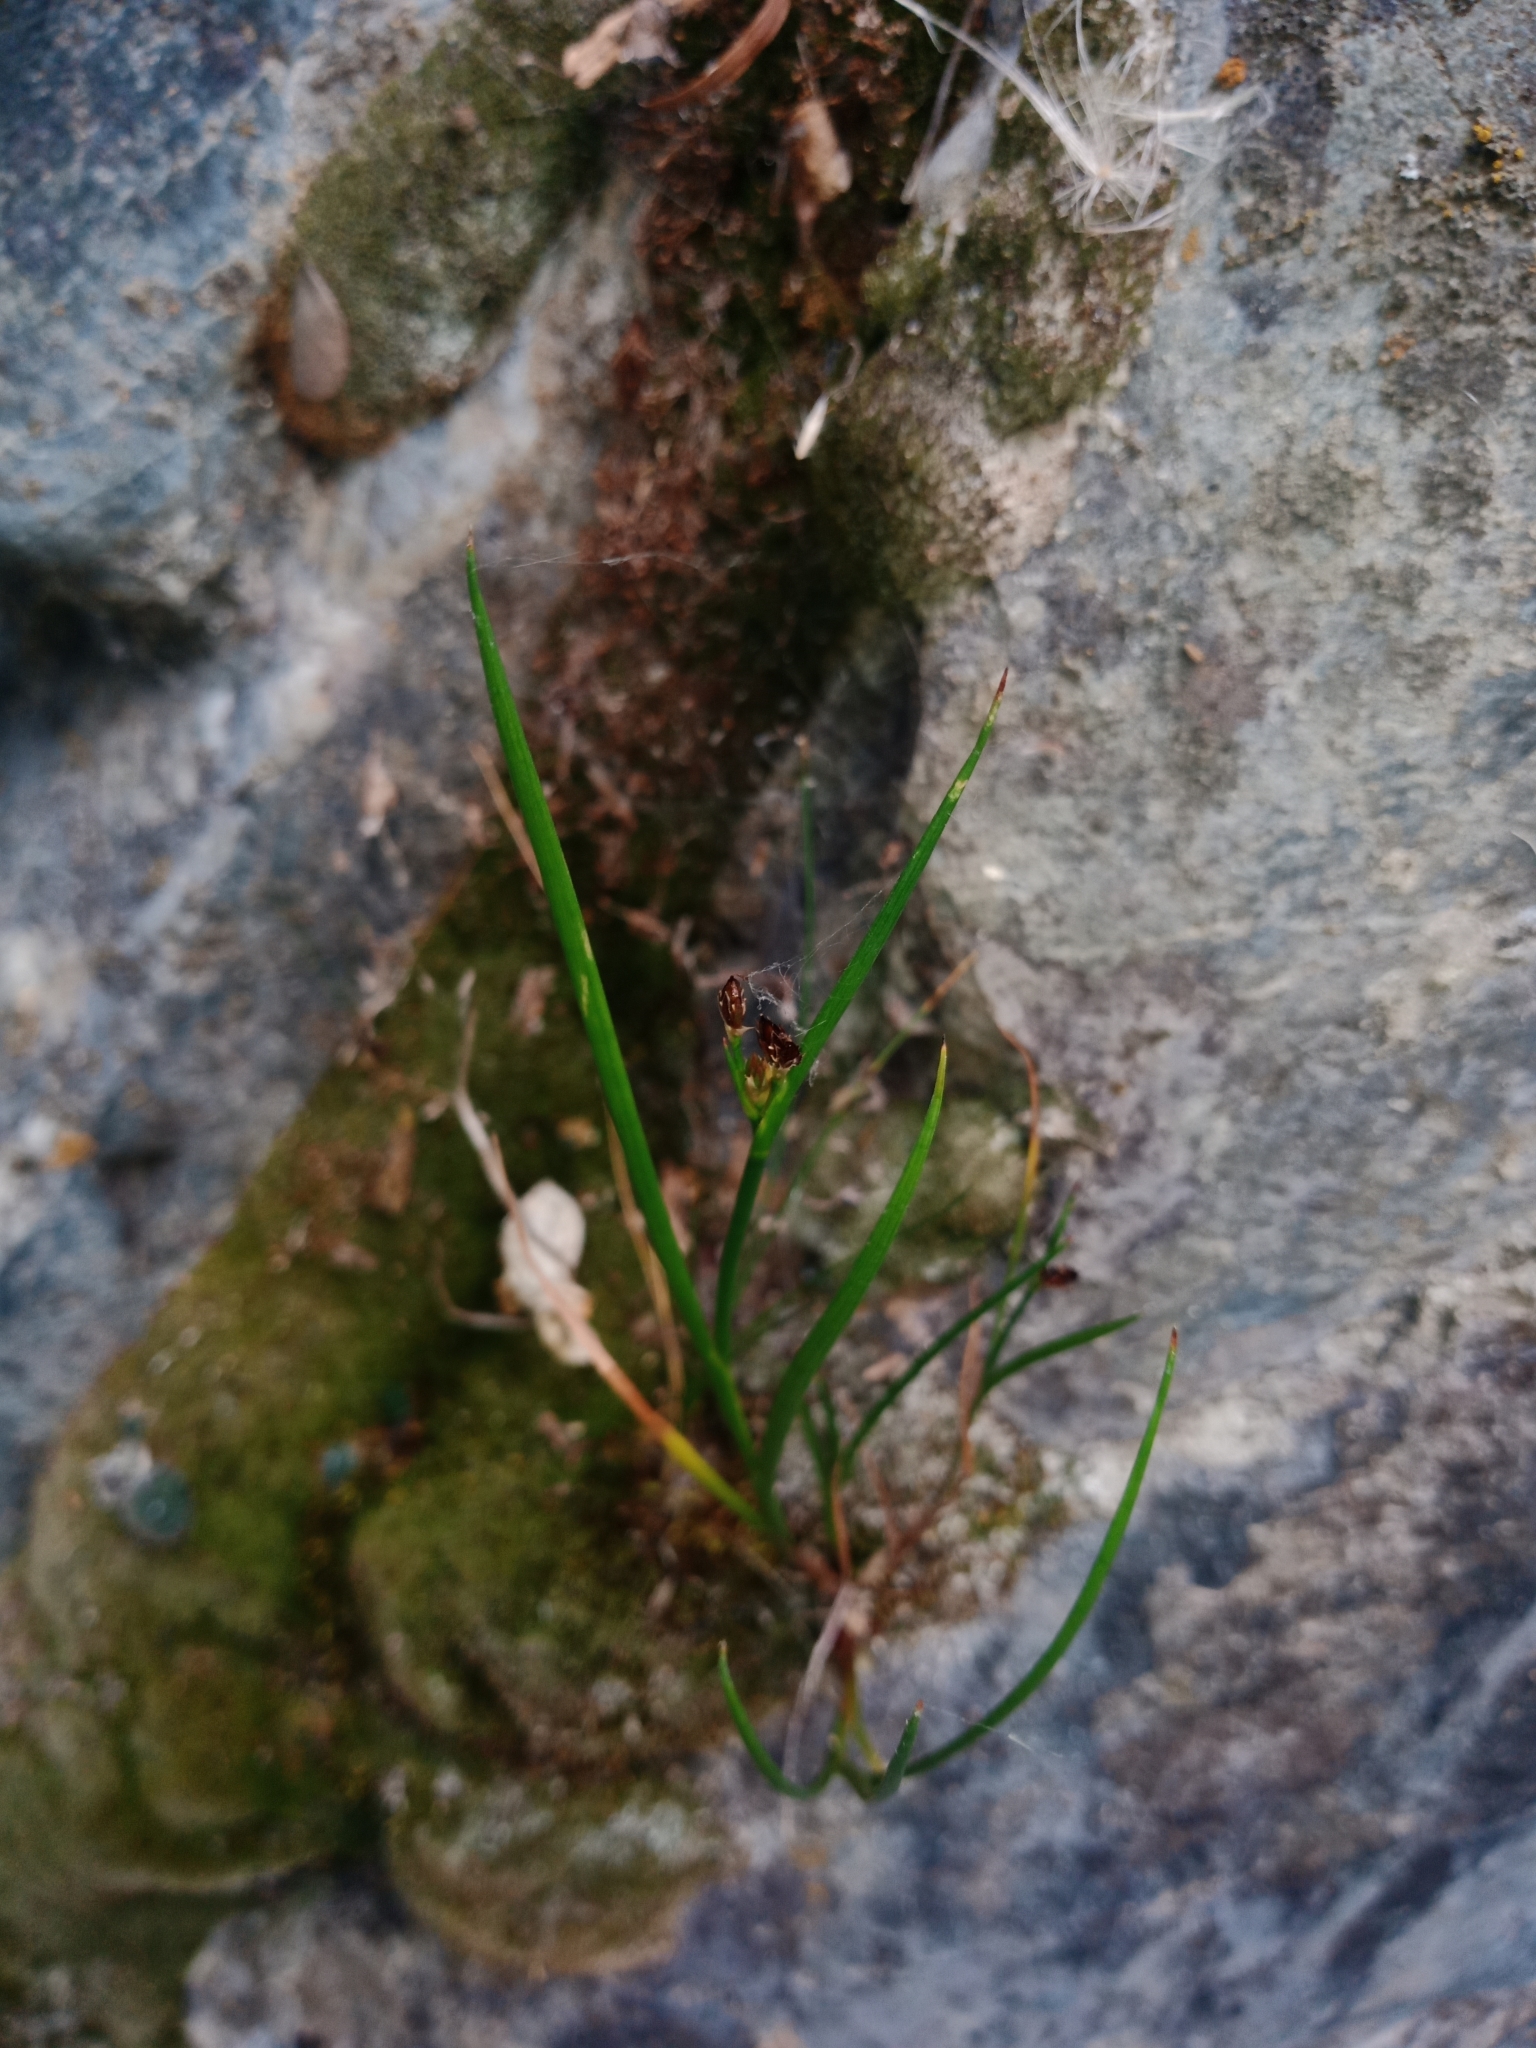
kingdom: Plantae
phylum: Tracheophyta
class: Liliopsida
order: Poales
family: Juncaceae
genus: Juncus
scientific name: Juncus articulatus
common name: Jointed rush
